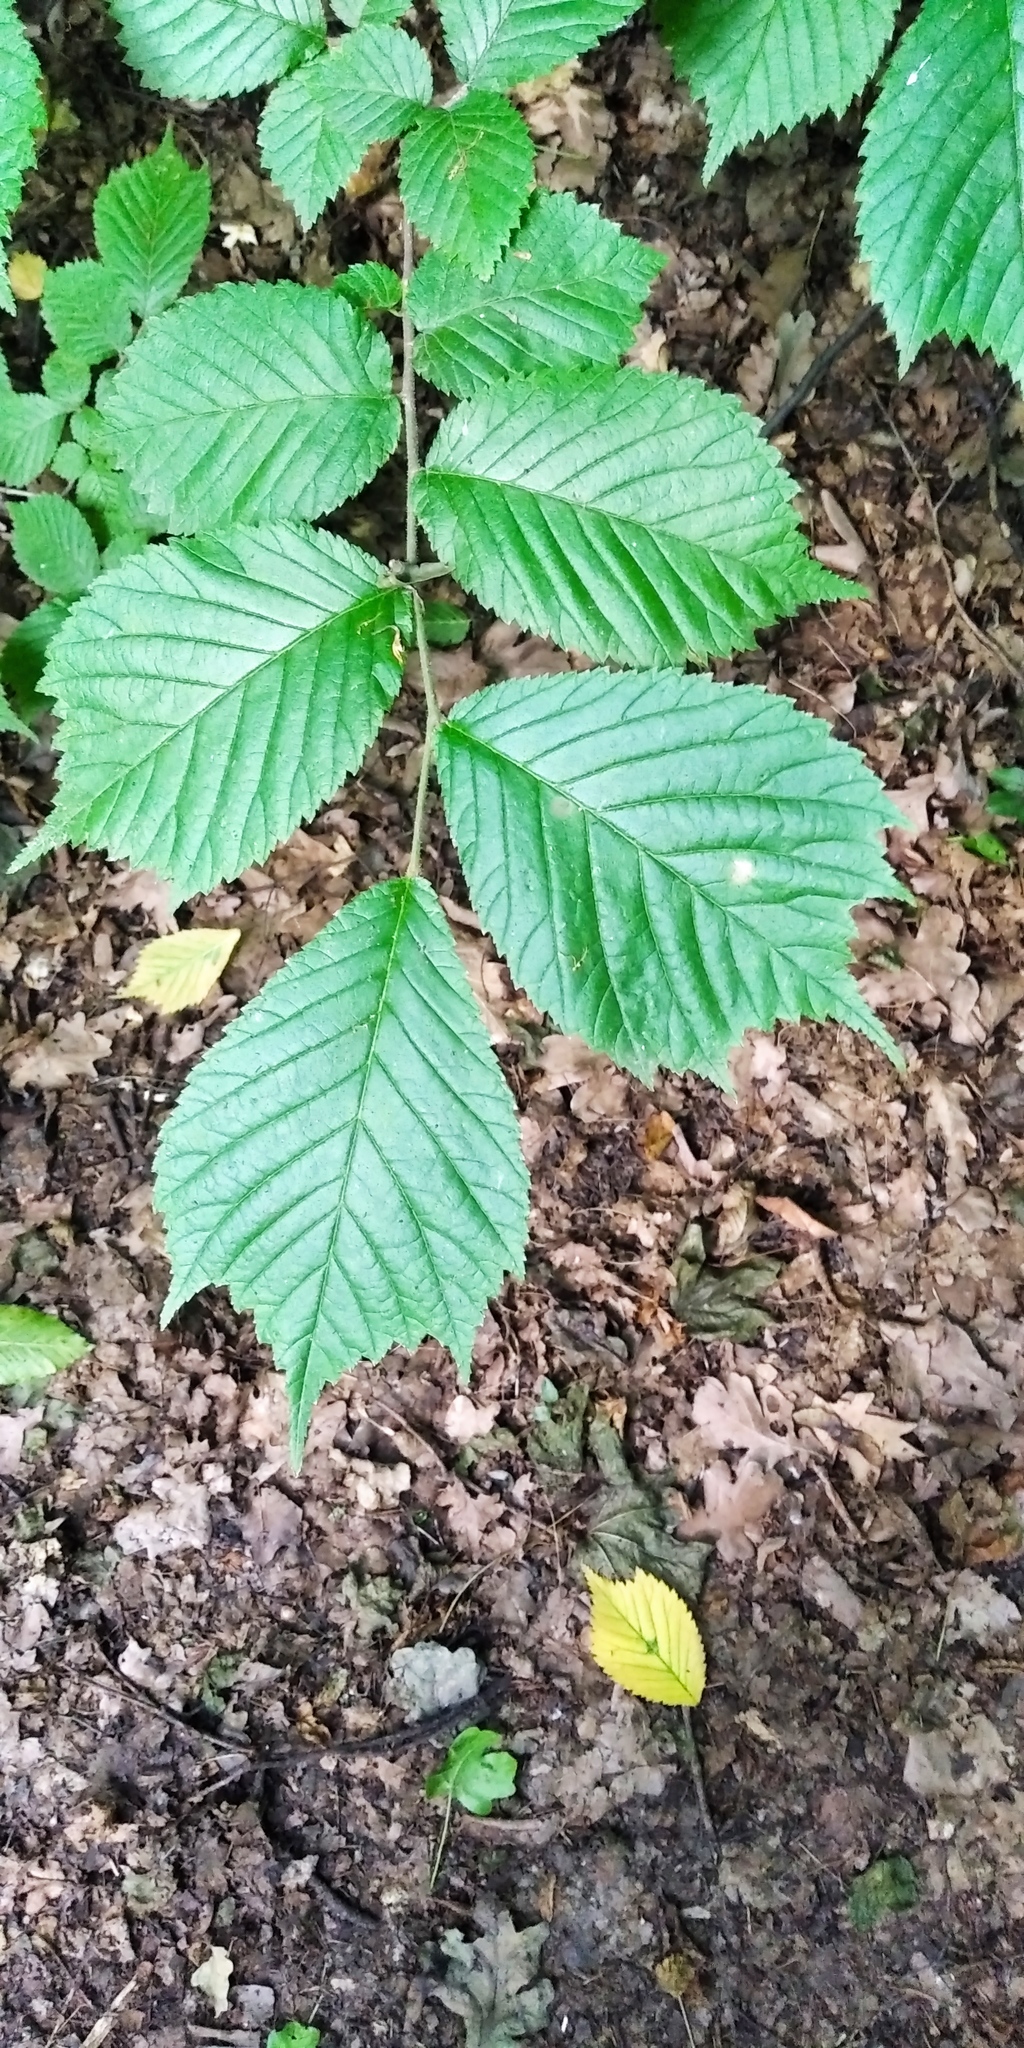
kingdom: Plantae
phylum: Tracheophyta
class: Magnoliopsida
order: Rosales
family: Ulmaceae
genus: Ulmus
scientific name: Ulmus glabra
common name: Wych elm
